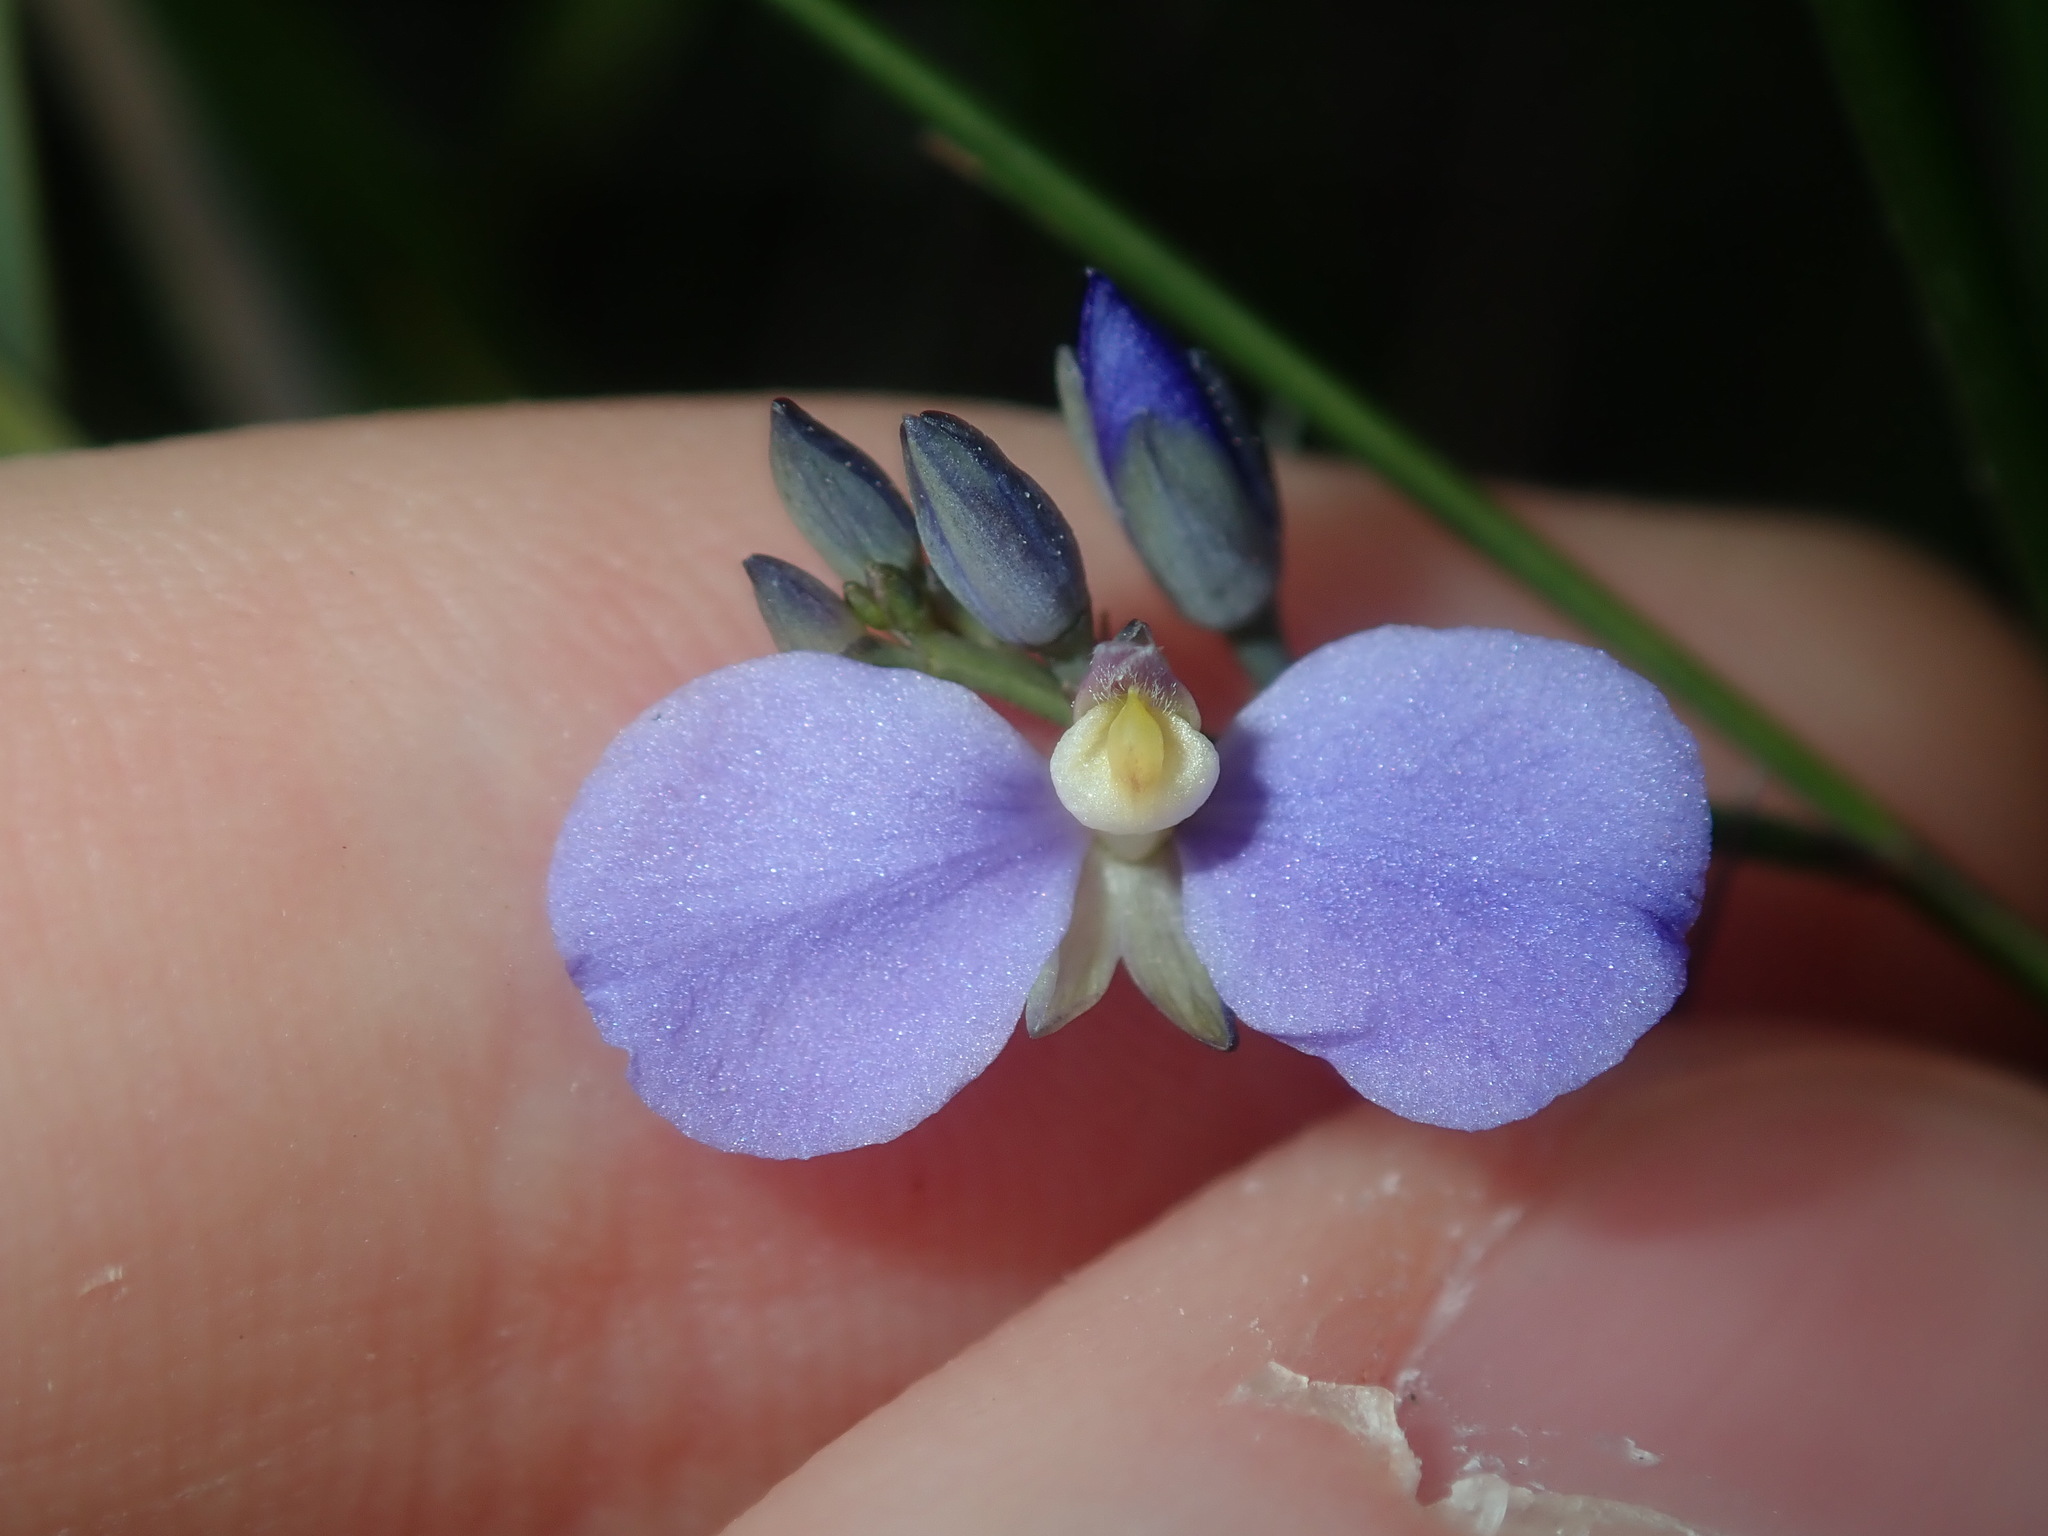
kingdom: Plantae
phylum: Tracheophyta
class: Magnoliopsida
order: Fabales
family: Polygalaceae
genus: Comesperma
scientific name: Comesperma volubile
